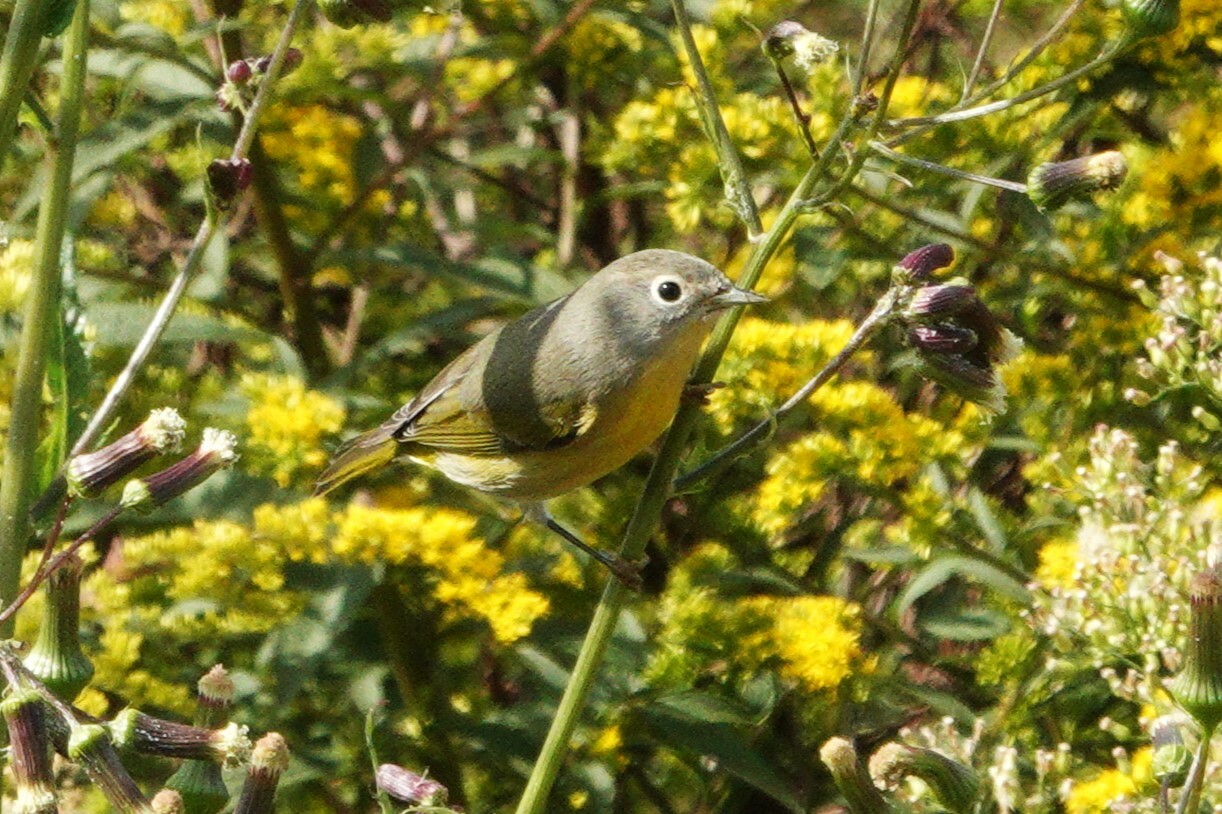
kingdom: Animalia
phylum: Chordata
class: Aves
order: Passeriformes
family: Parulidae
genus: Leiothlypis
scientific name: Leiothlypis ruficapilla
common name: Nashville warbler
